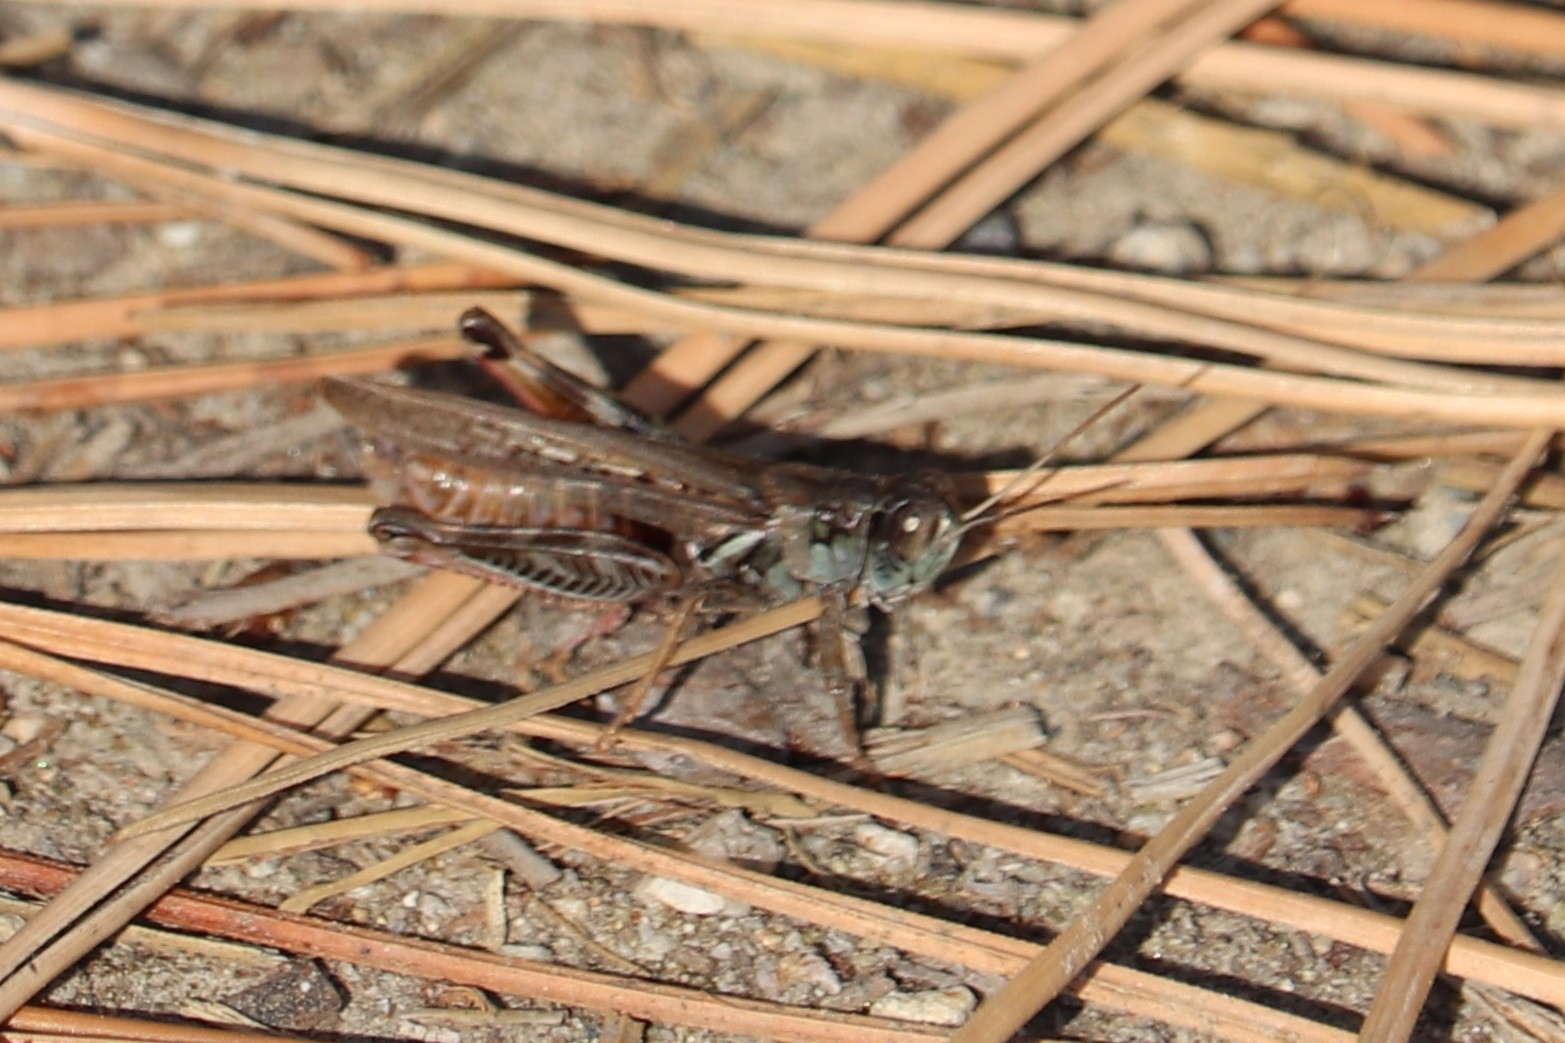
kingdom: Animalia
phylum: Arthropoda
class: Insecta
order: Orthoptera
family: Acrididae
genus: Melanoplus
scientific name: Melanoplus sanguinipes
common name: Migratory grasshopper
